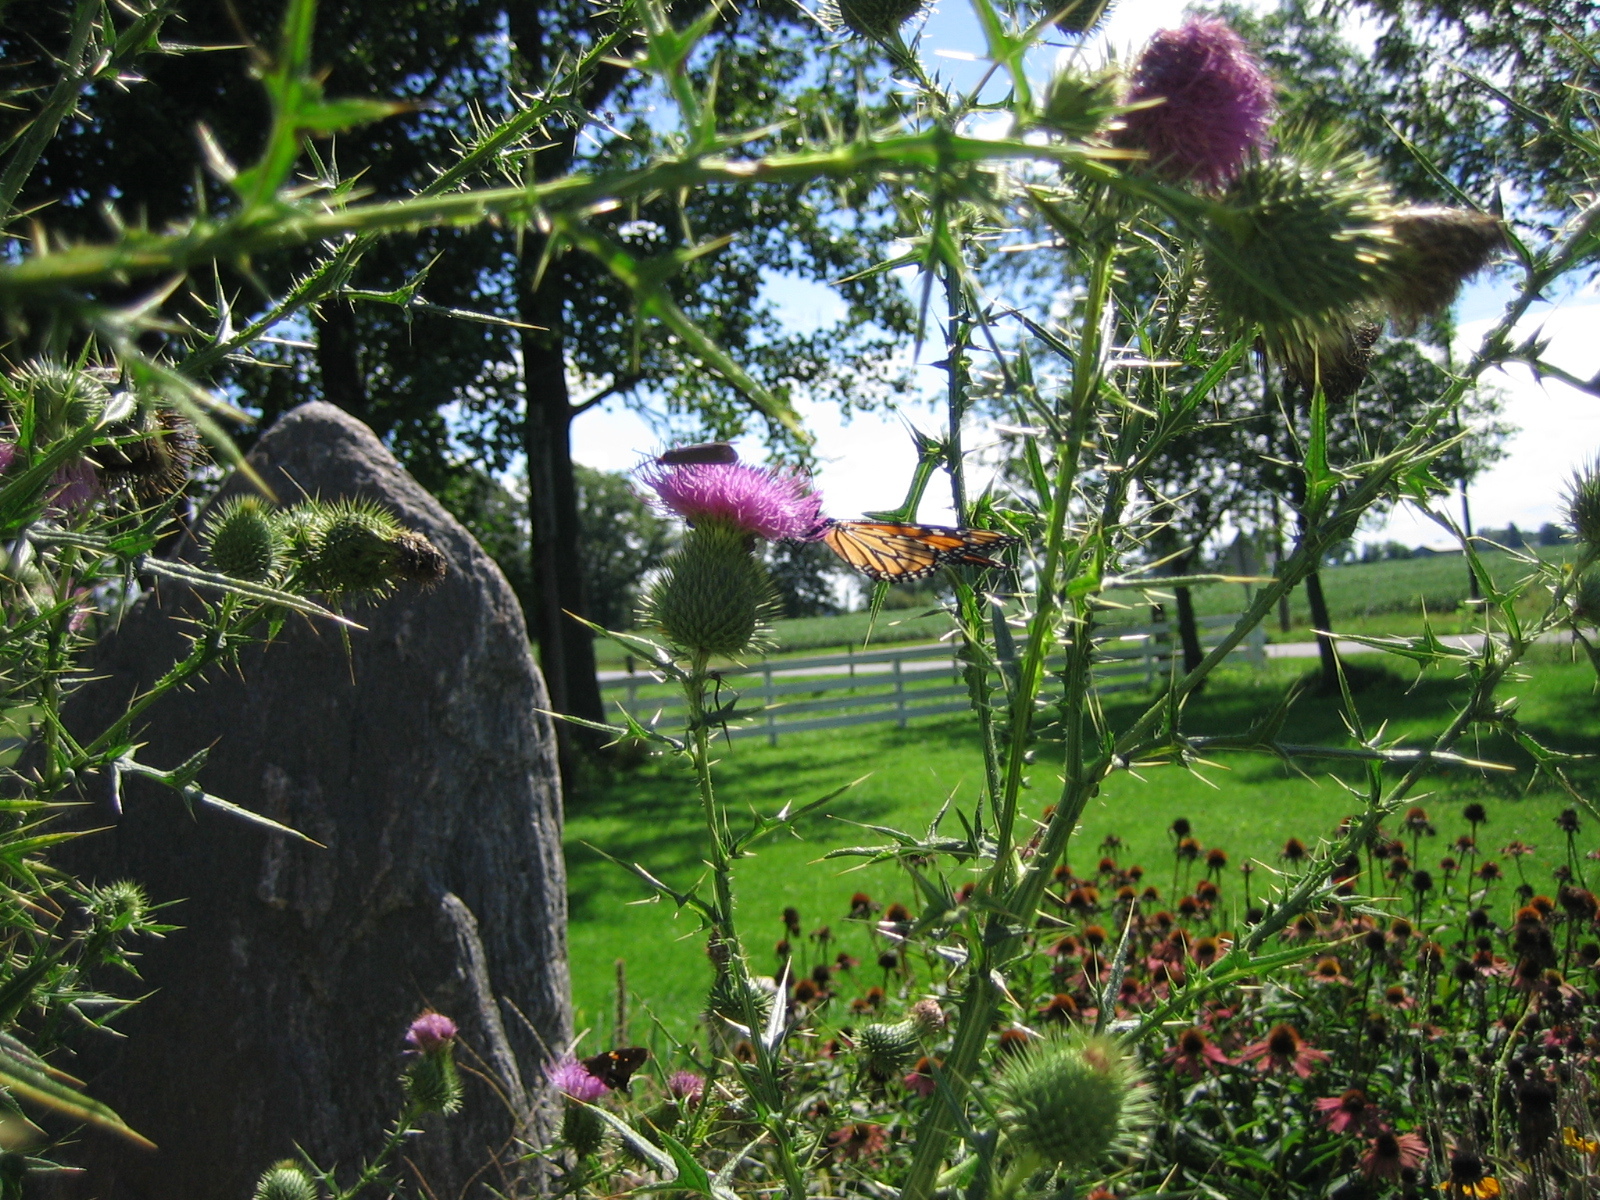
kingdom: Animalia
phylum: Arthropoda
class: Insecta
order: Lepidoptera
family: Nymphalidae
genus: Danaus
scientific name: Danaus plexippus
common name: Monarch
